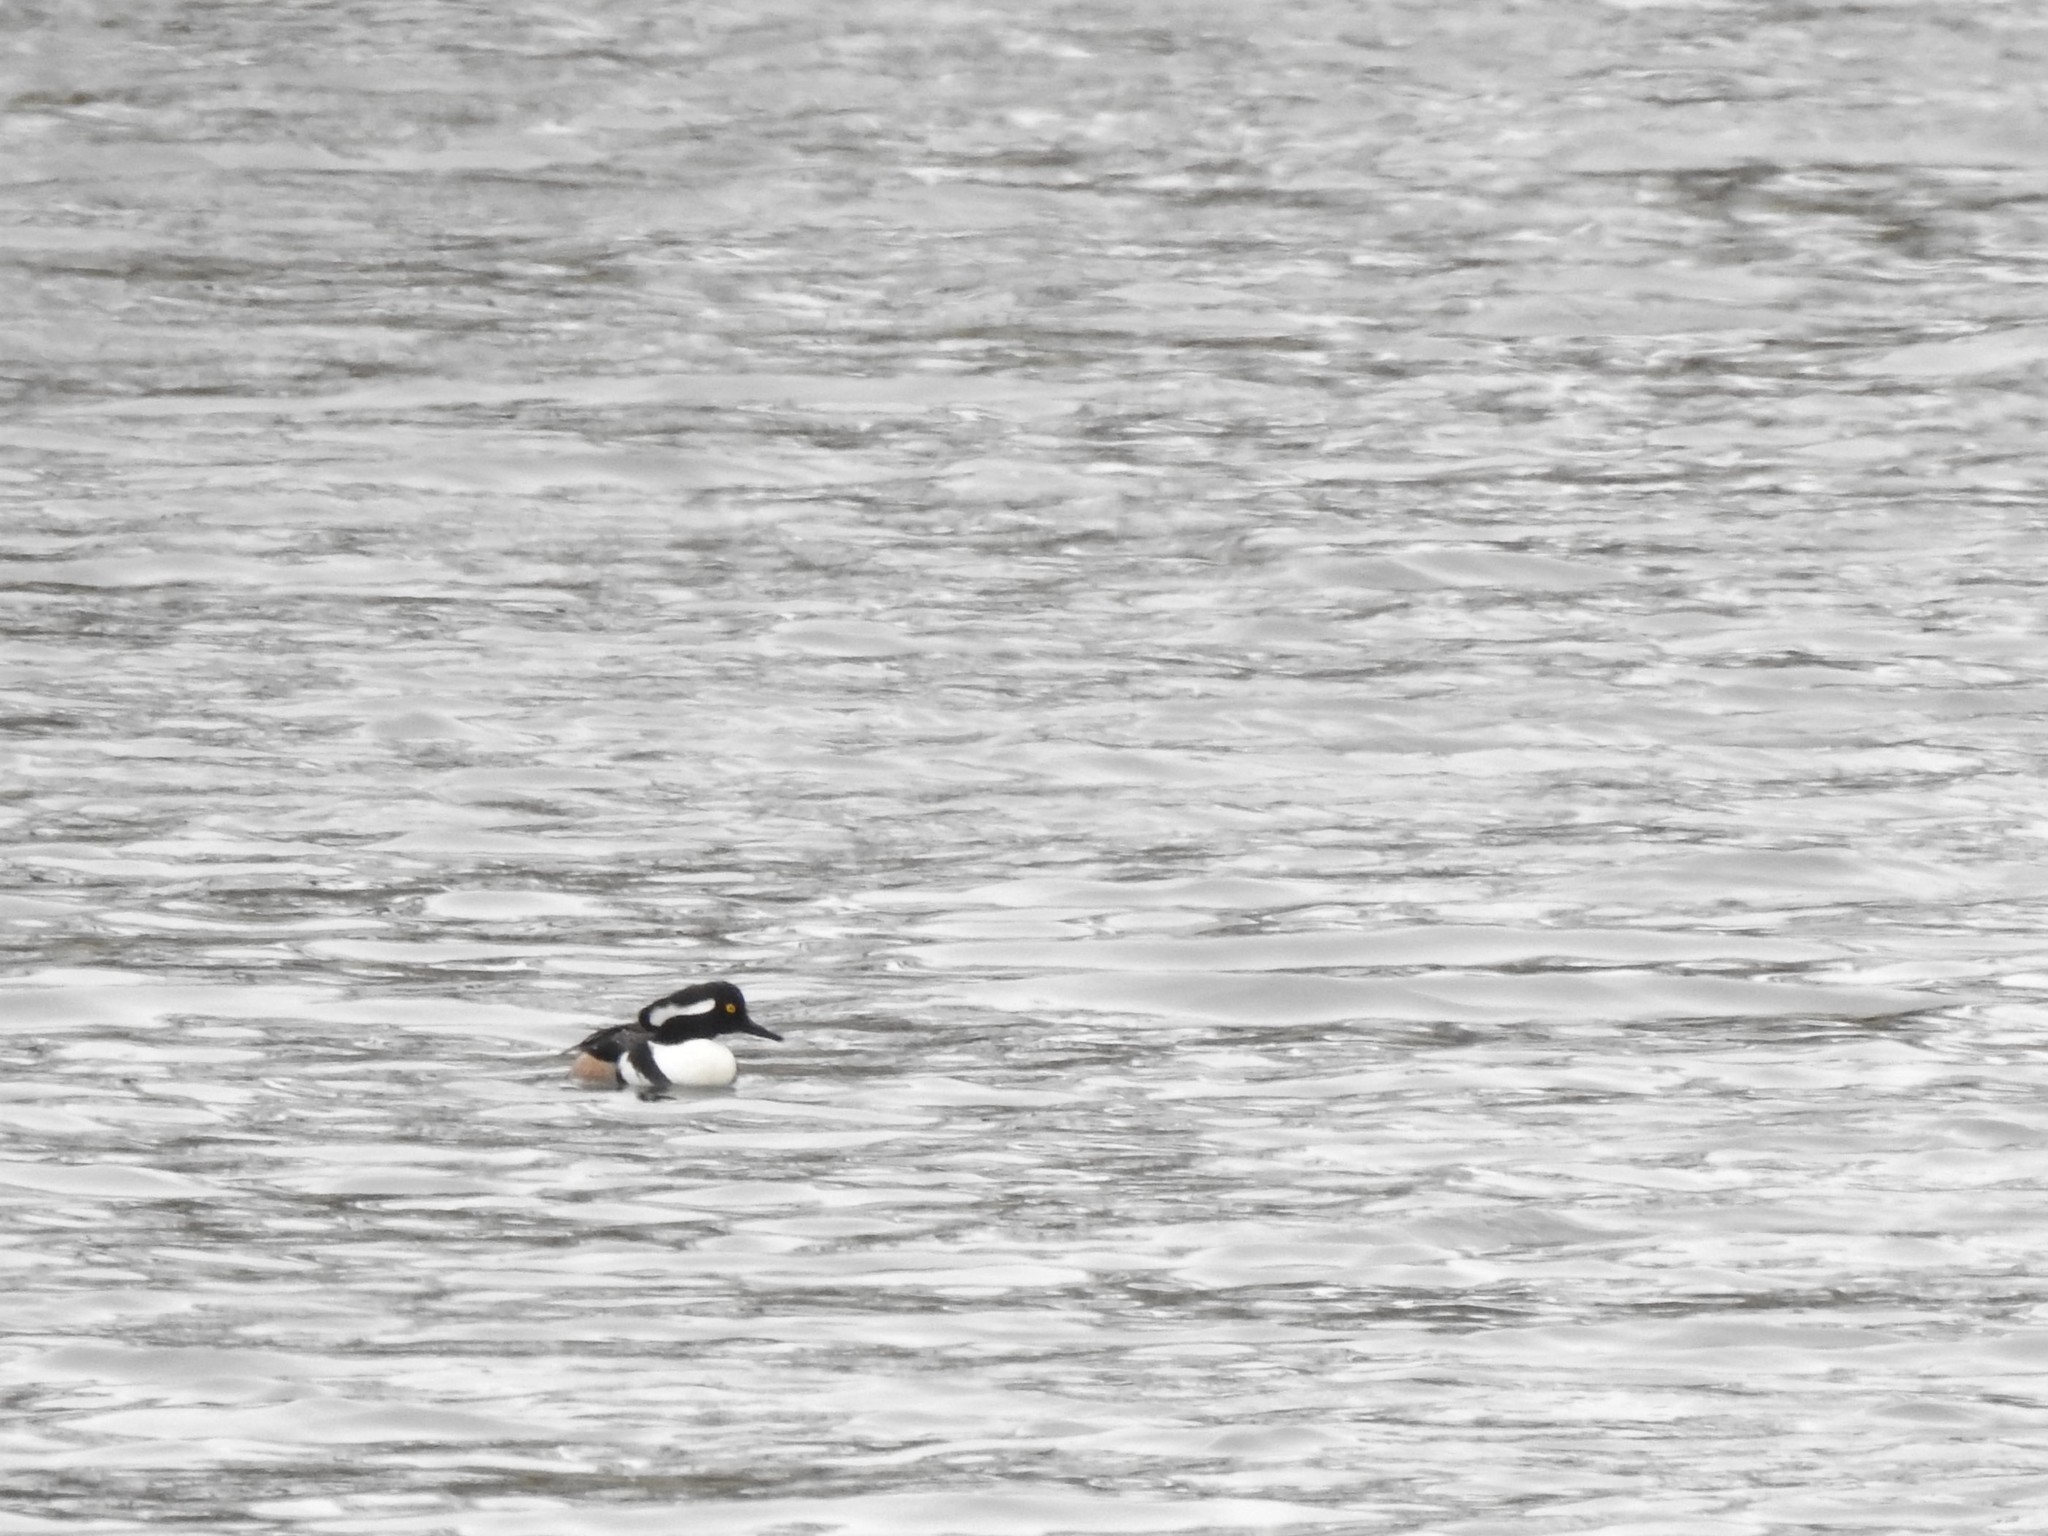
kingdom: Animalia
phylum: Chordata
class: Aves
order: Anseriformes
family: Anatidae
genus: Lophodytes
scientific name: Lophodytes cucullatus
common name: Hooded merganser
